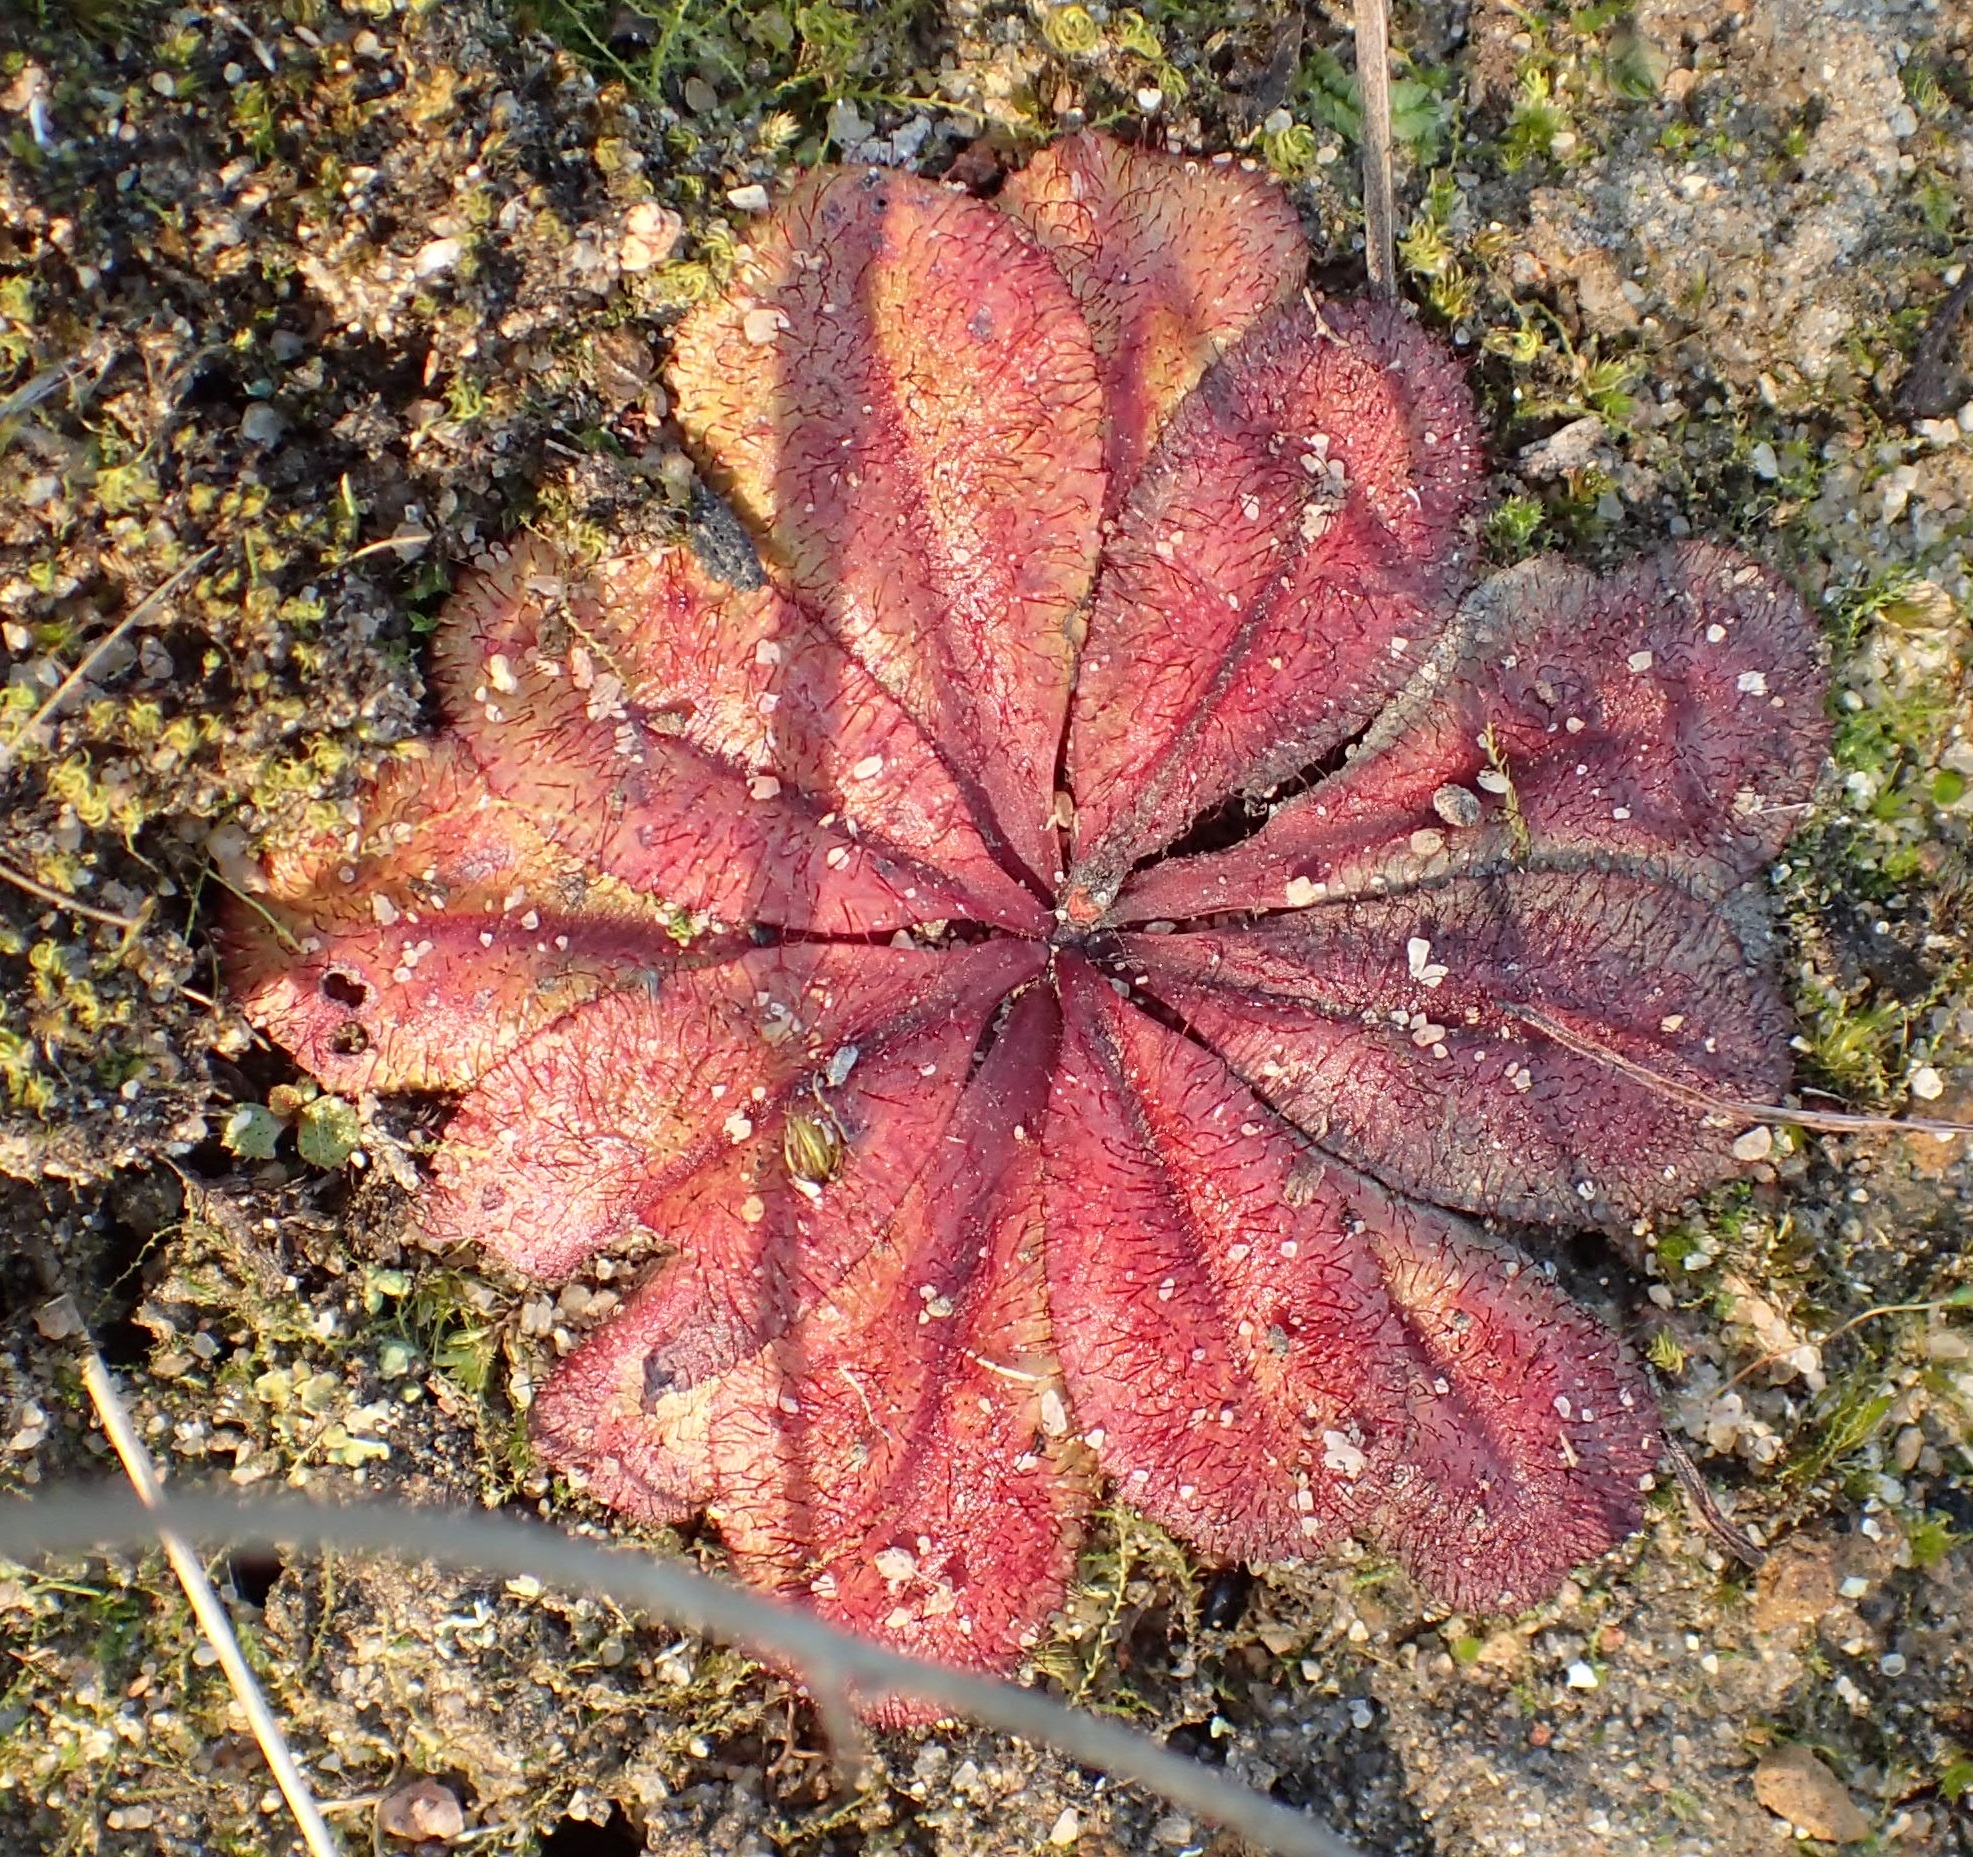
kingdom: Plantae
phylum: Tracheophyta
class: Magnoliopsida
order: Caryophyllales
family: Droseraceae
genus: Drosera
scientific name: Drosera rosulata
